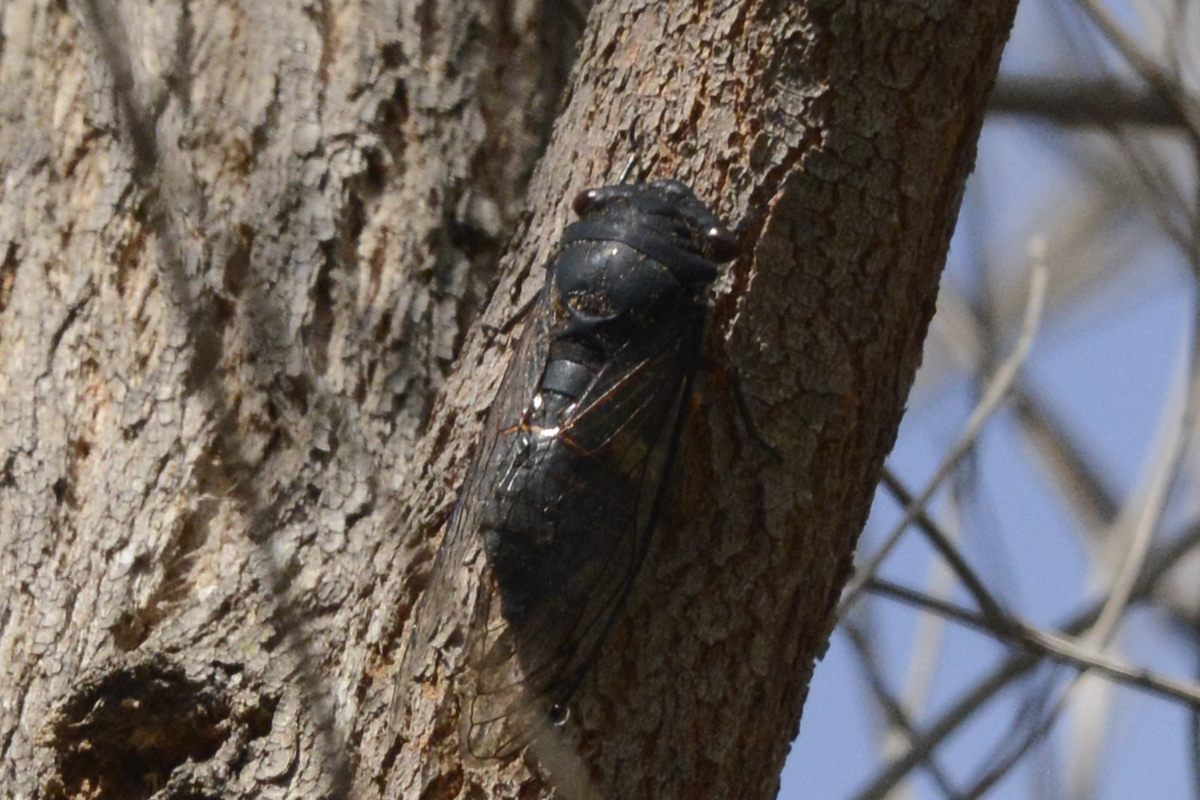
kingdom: Animalia
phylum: Arthropoda
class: Insecta
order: Hemiptera
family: Cicadidae
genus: Psaltoda
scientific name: Psaltoda plaga
